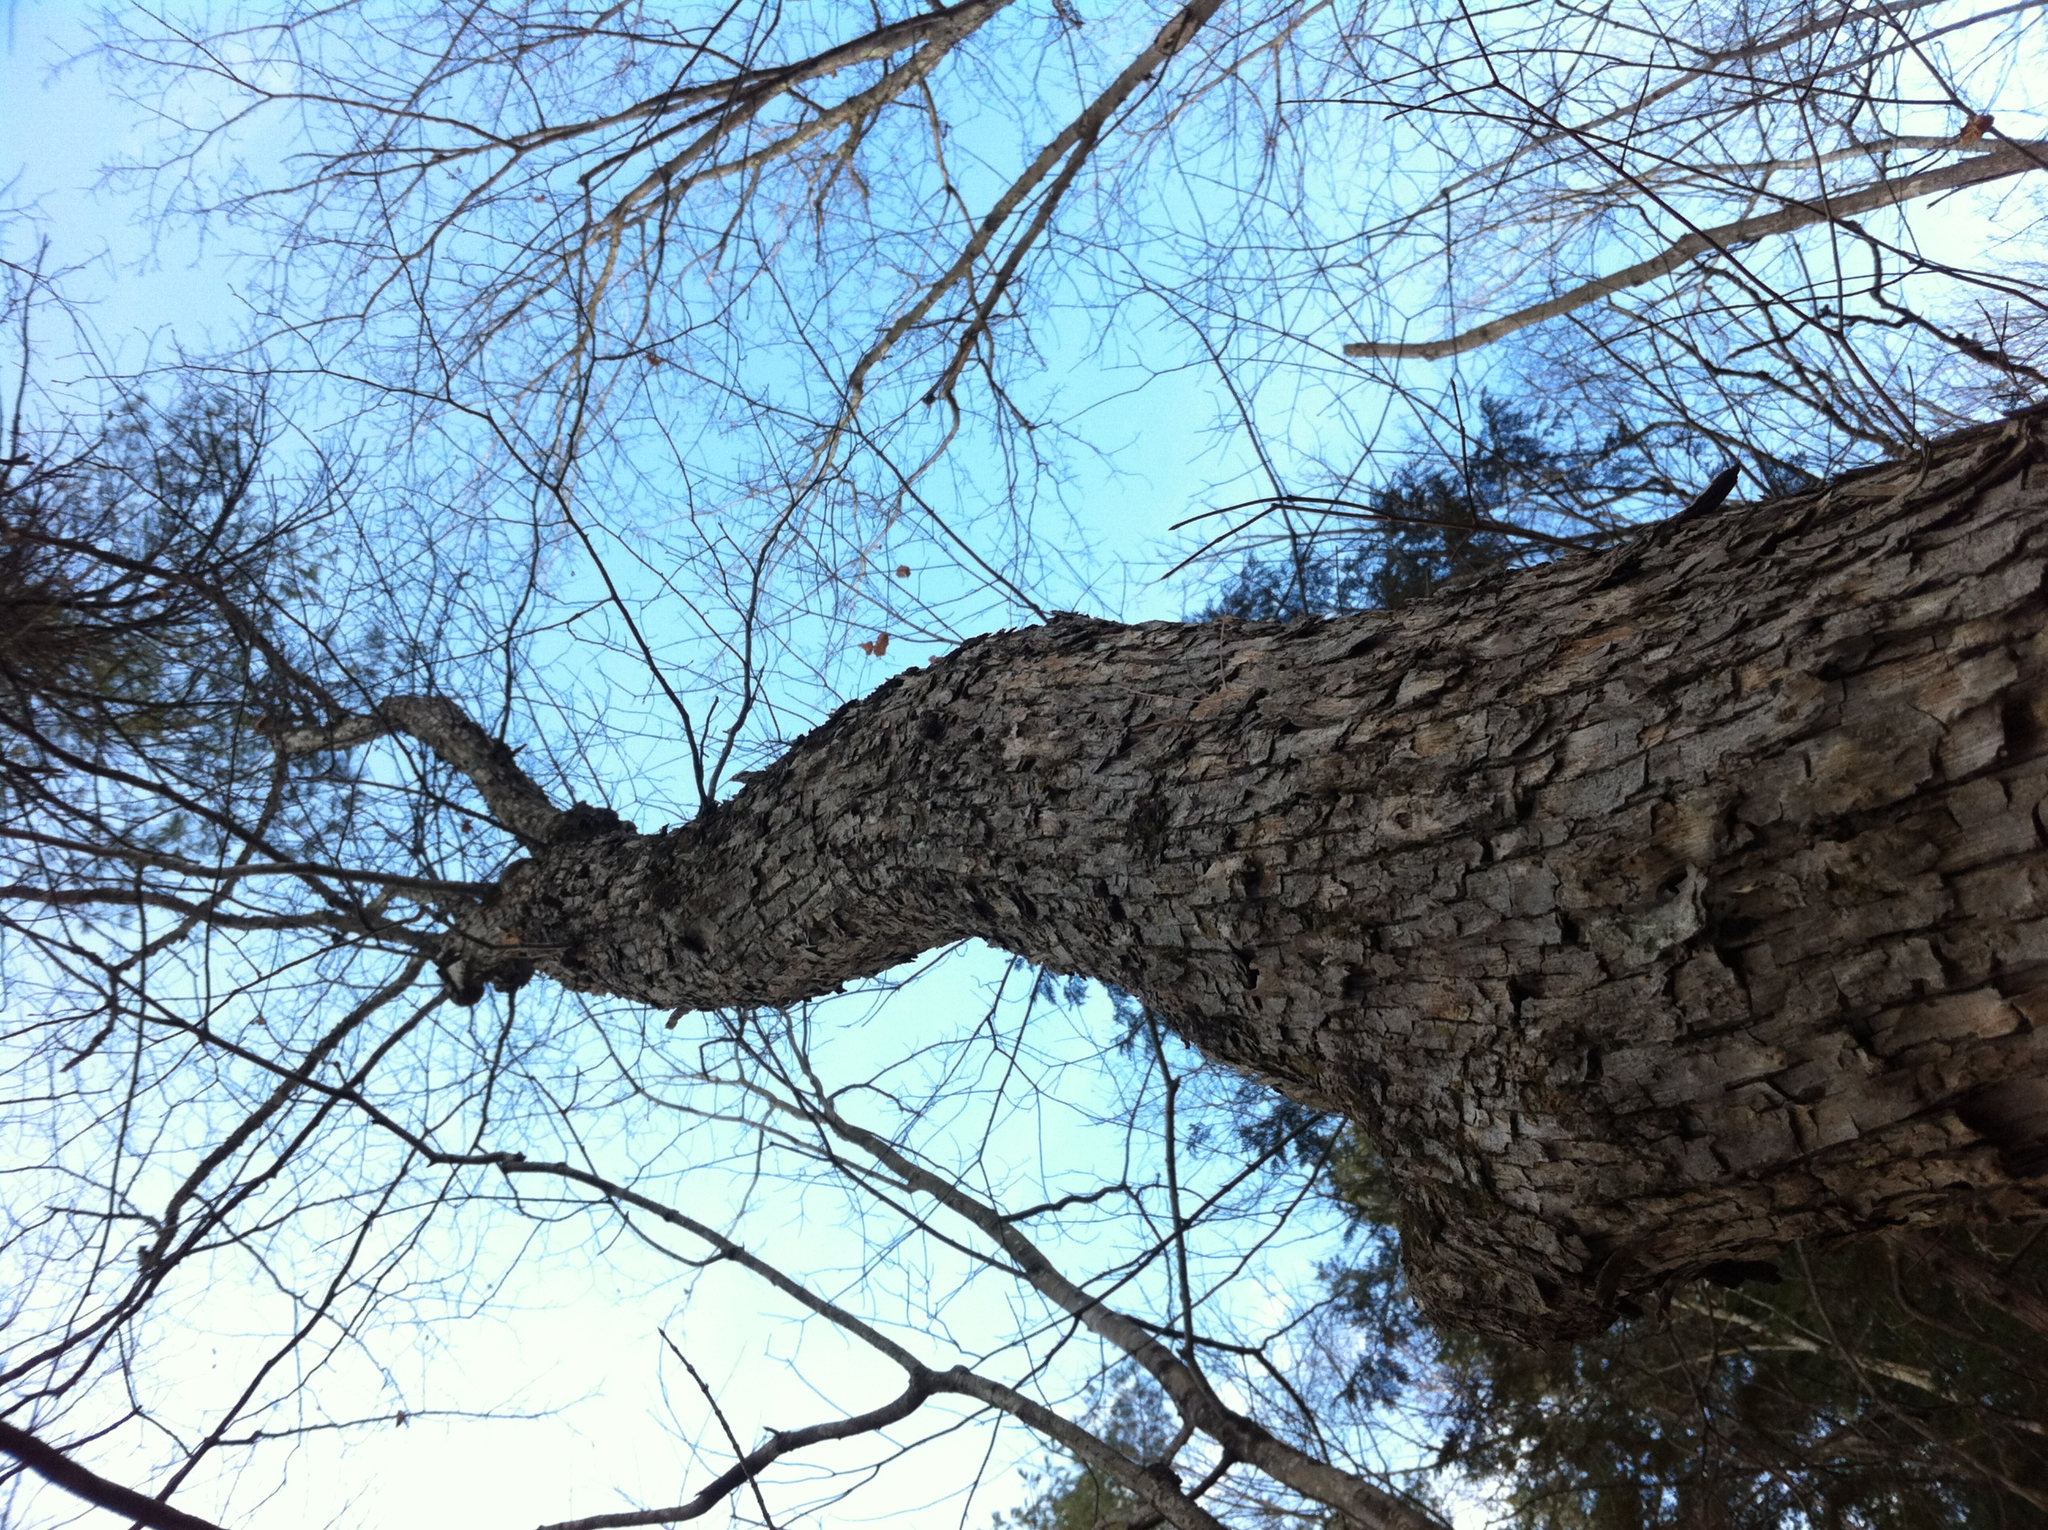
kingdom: Plantae
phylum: Tracheophyta
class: Magnoliopsida
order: Fagales
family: Betulaceae
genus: Ostrya
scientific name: Ostrya virginiana
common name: Ironwood
